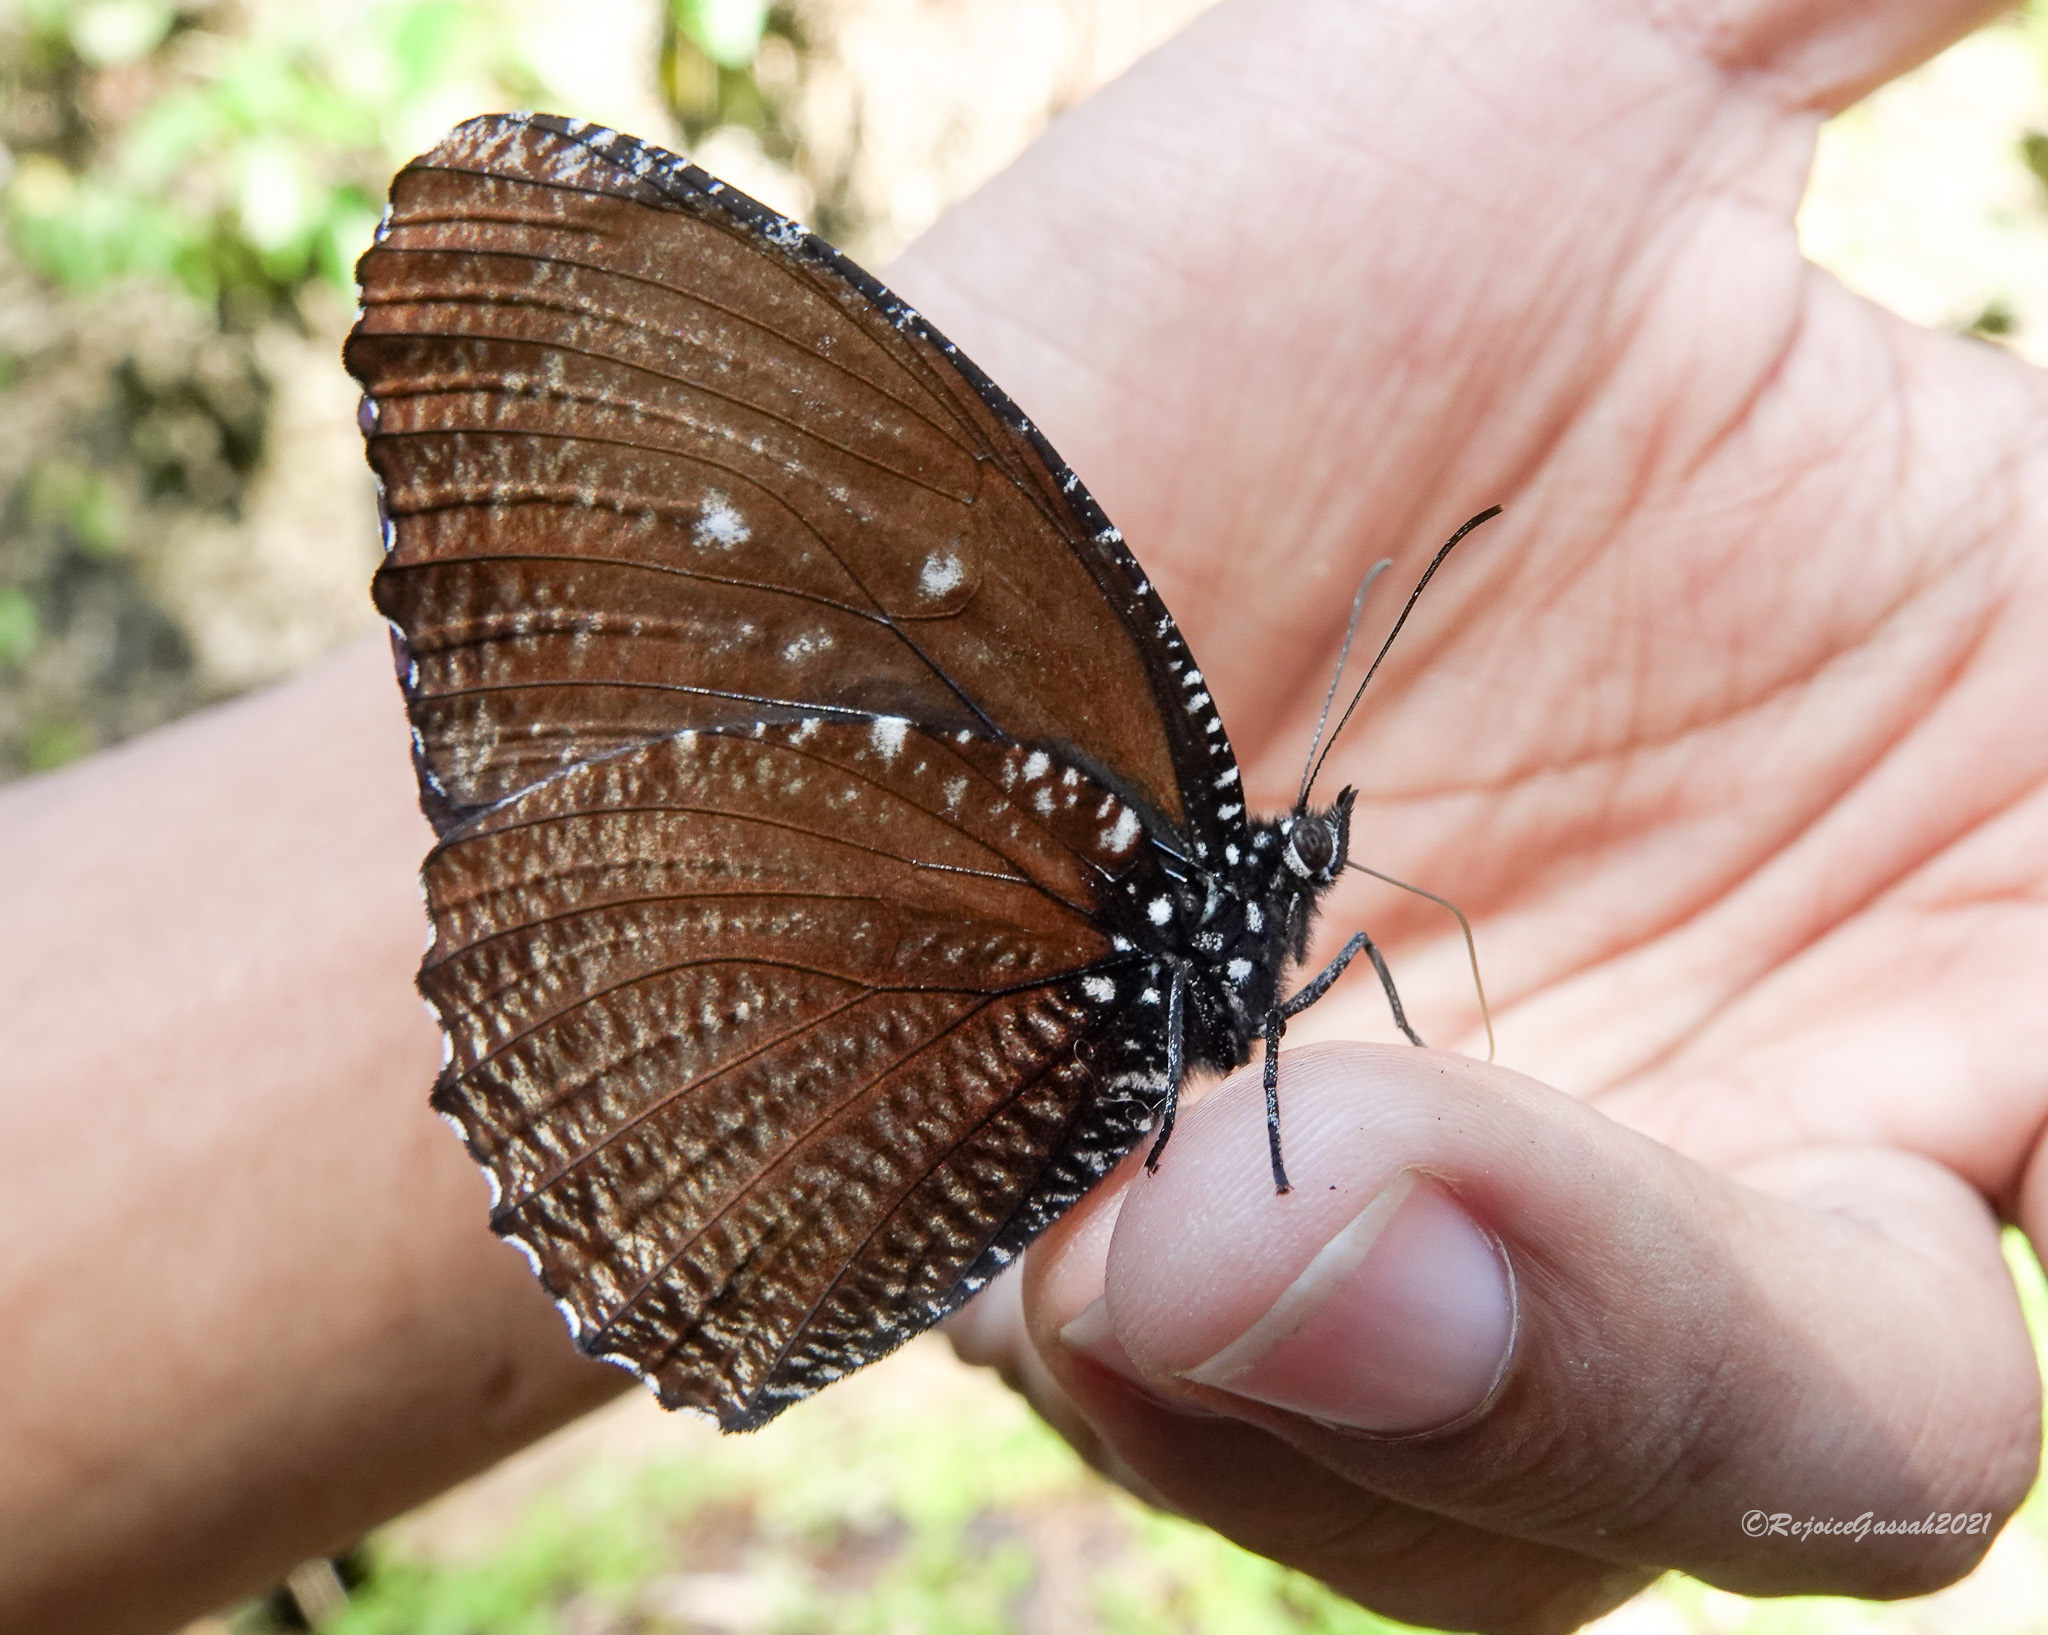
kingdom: Animalia
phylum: Arthropoda
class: Insecta
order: Lepidoptera
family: Nymphalidae
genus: Elymnias
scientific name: Elymnias malelas
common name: Spotted palmfly
